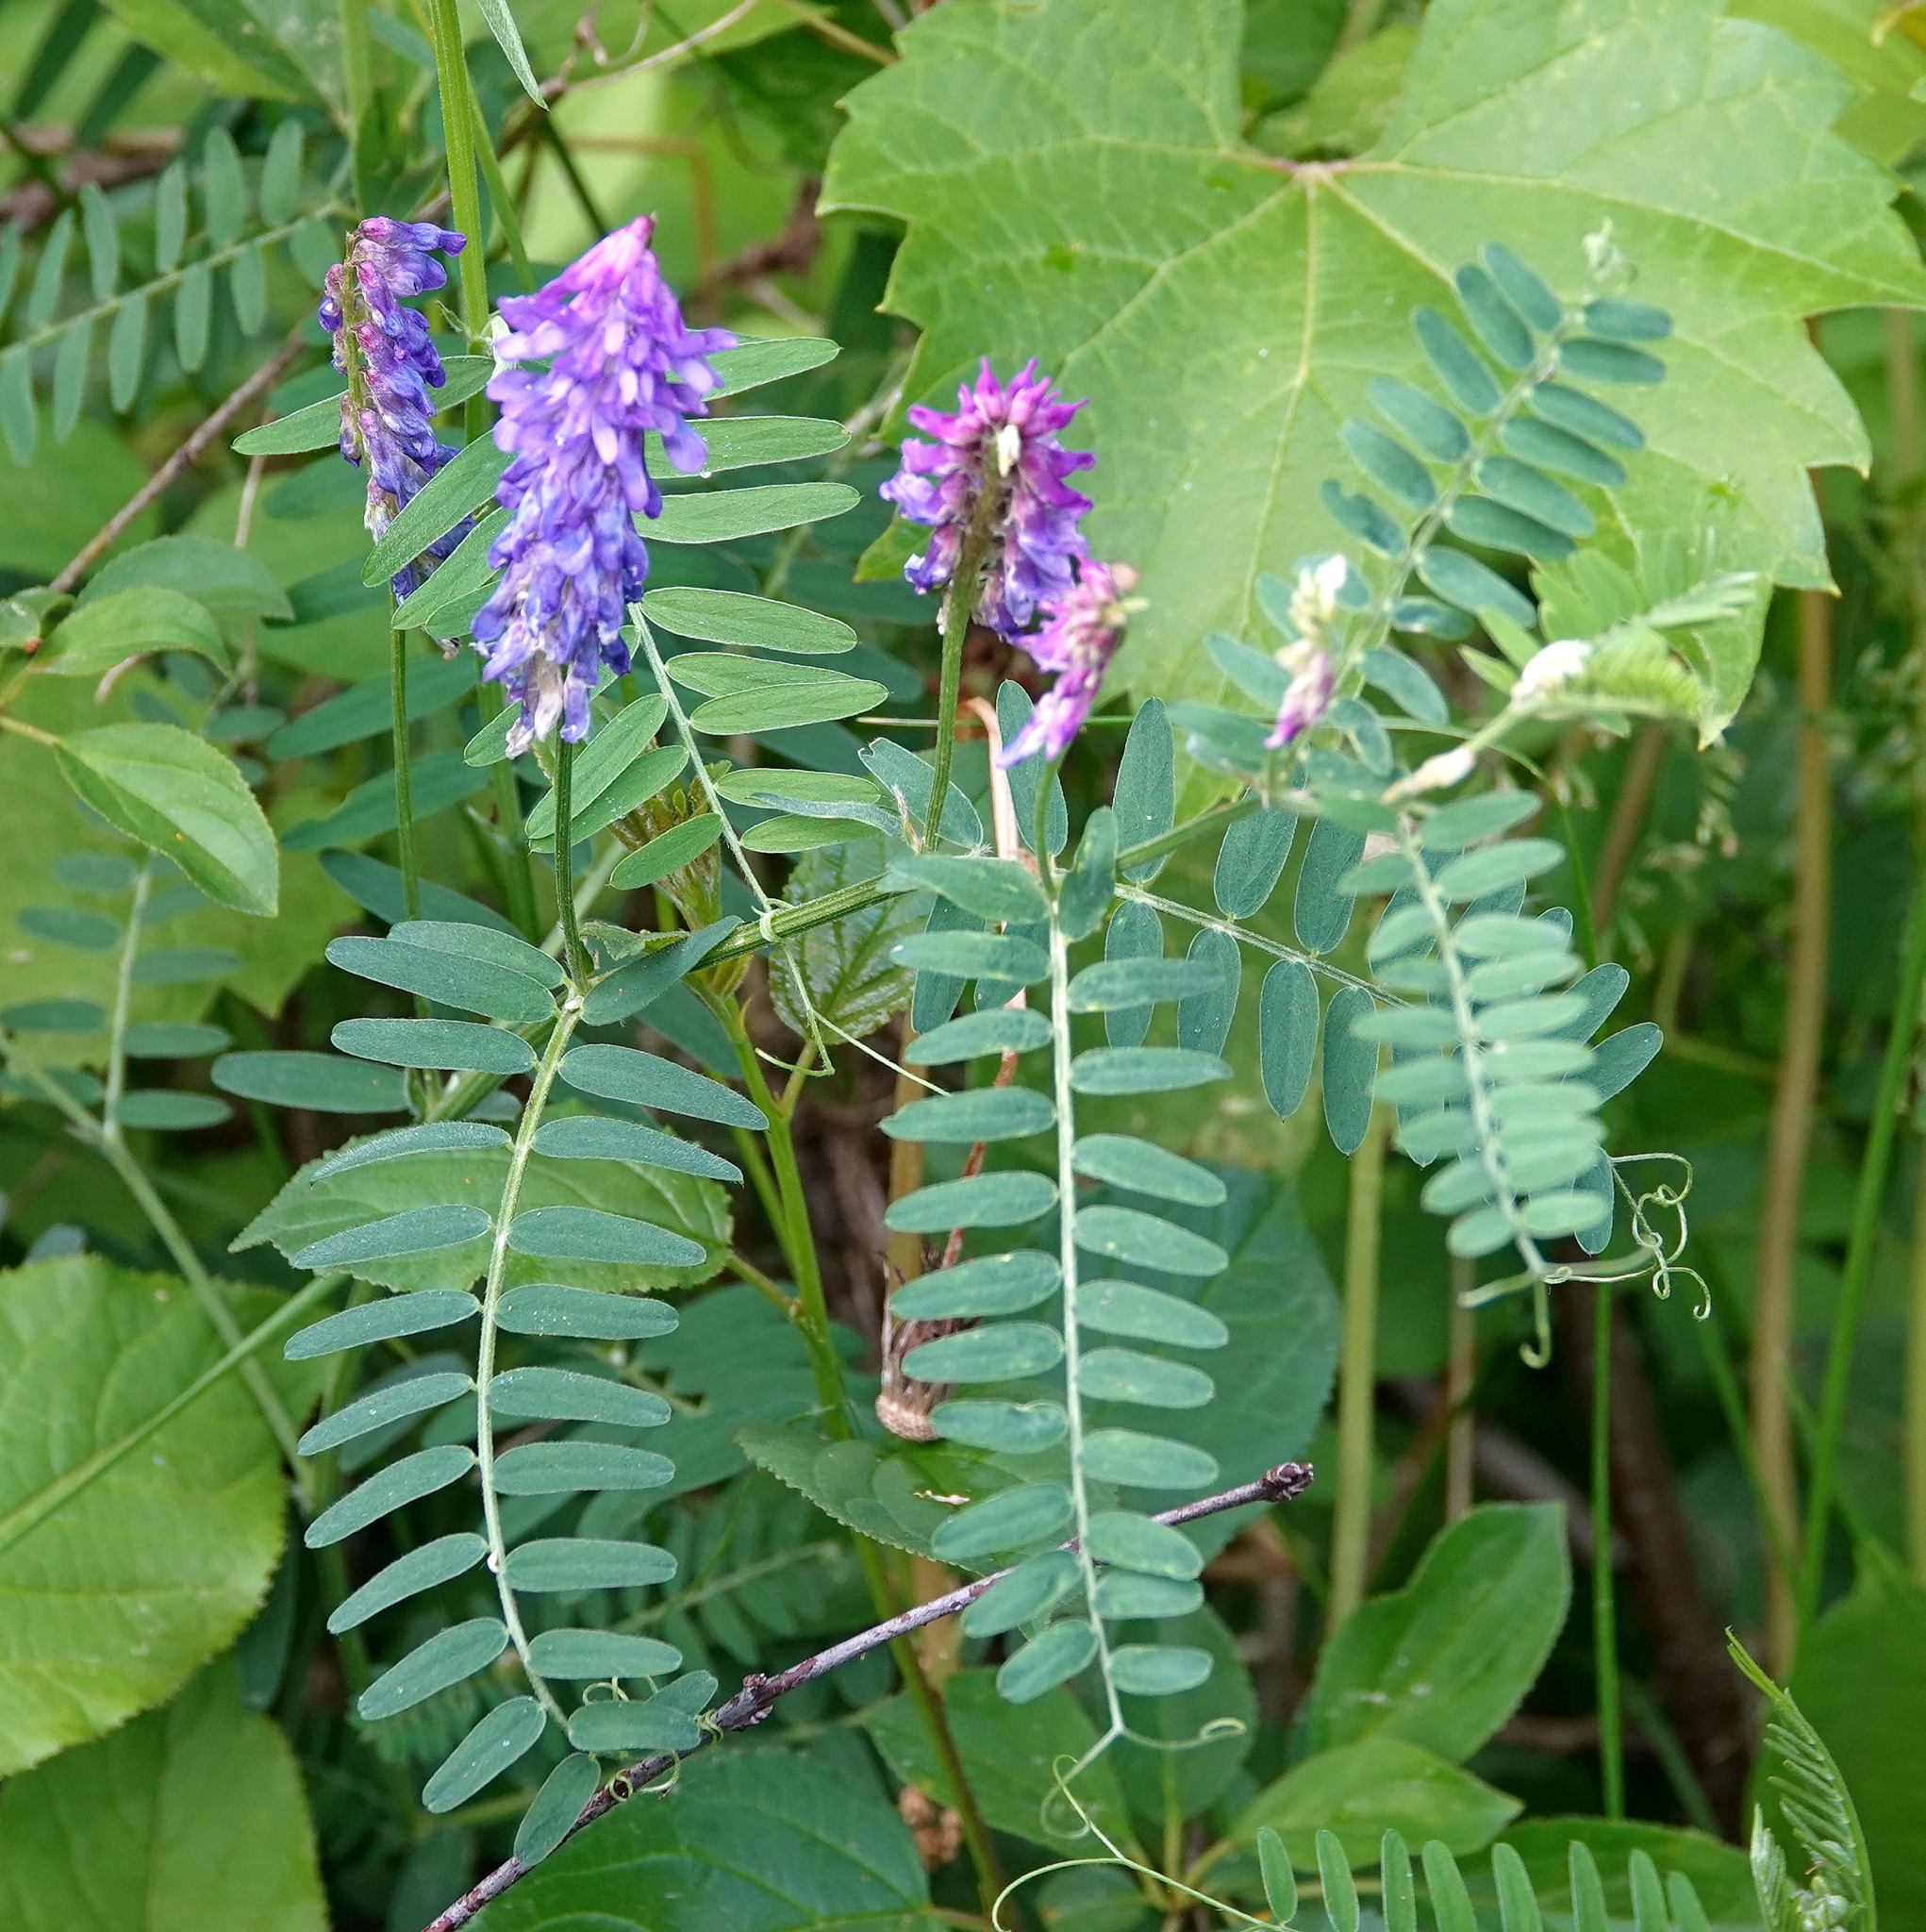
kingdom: Plantae
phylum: Tracheophyta
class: Magnoliopsida
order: Fabales
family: Fabaceae
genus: Vicia
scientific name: Vicia cracca
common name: Bird vetch
